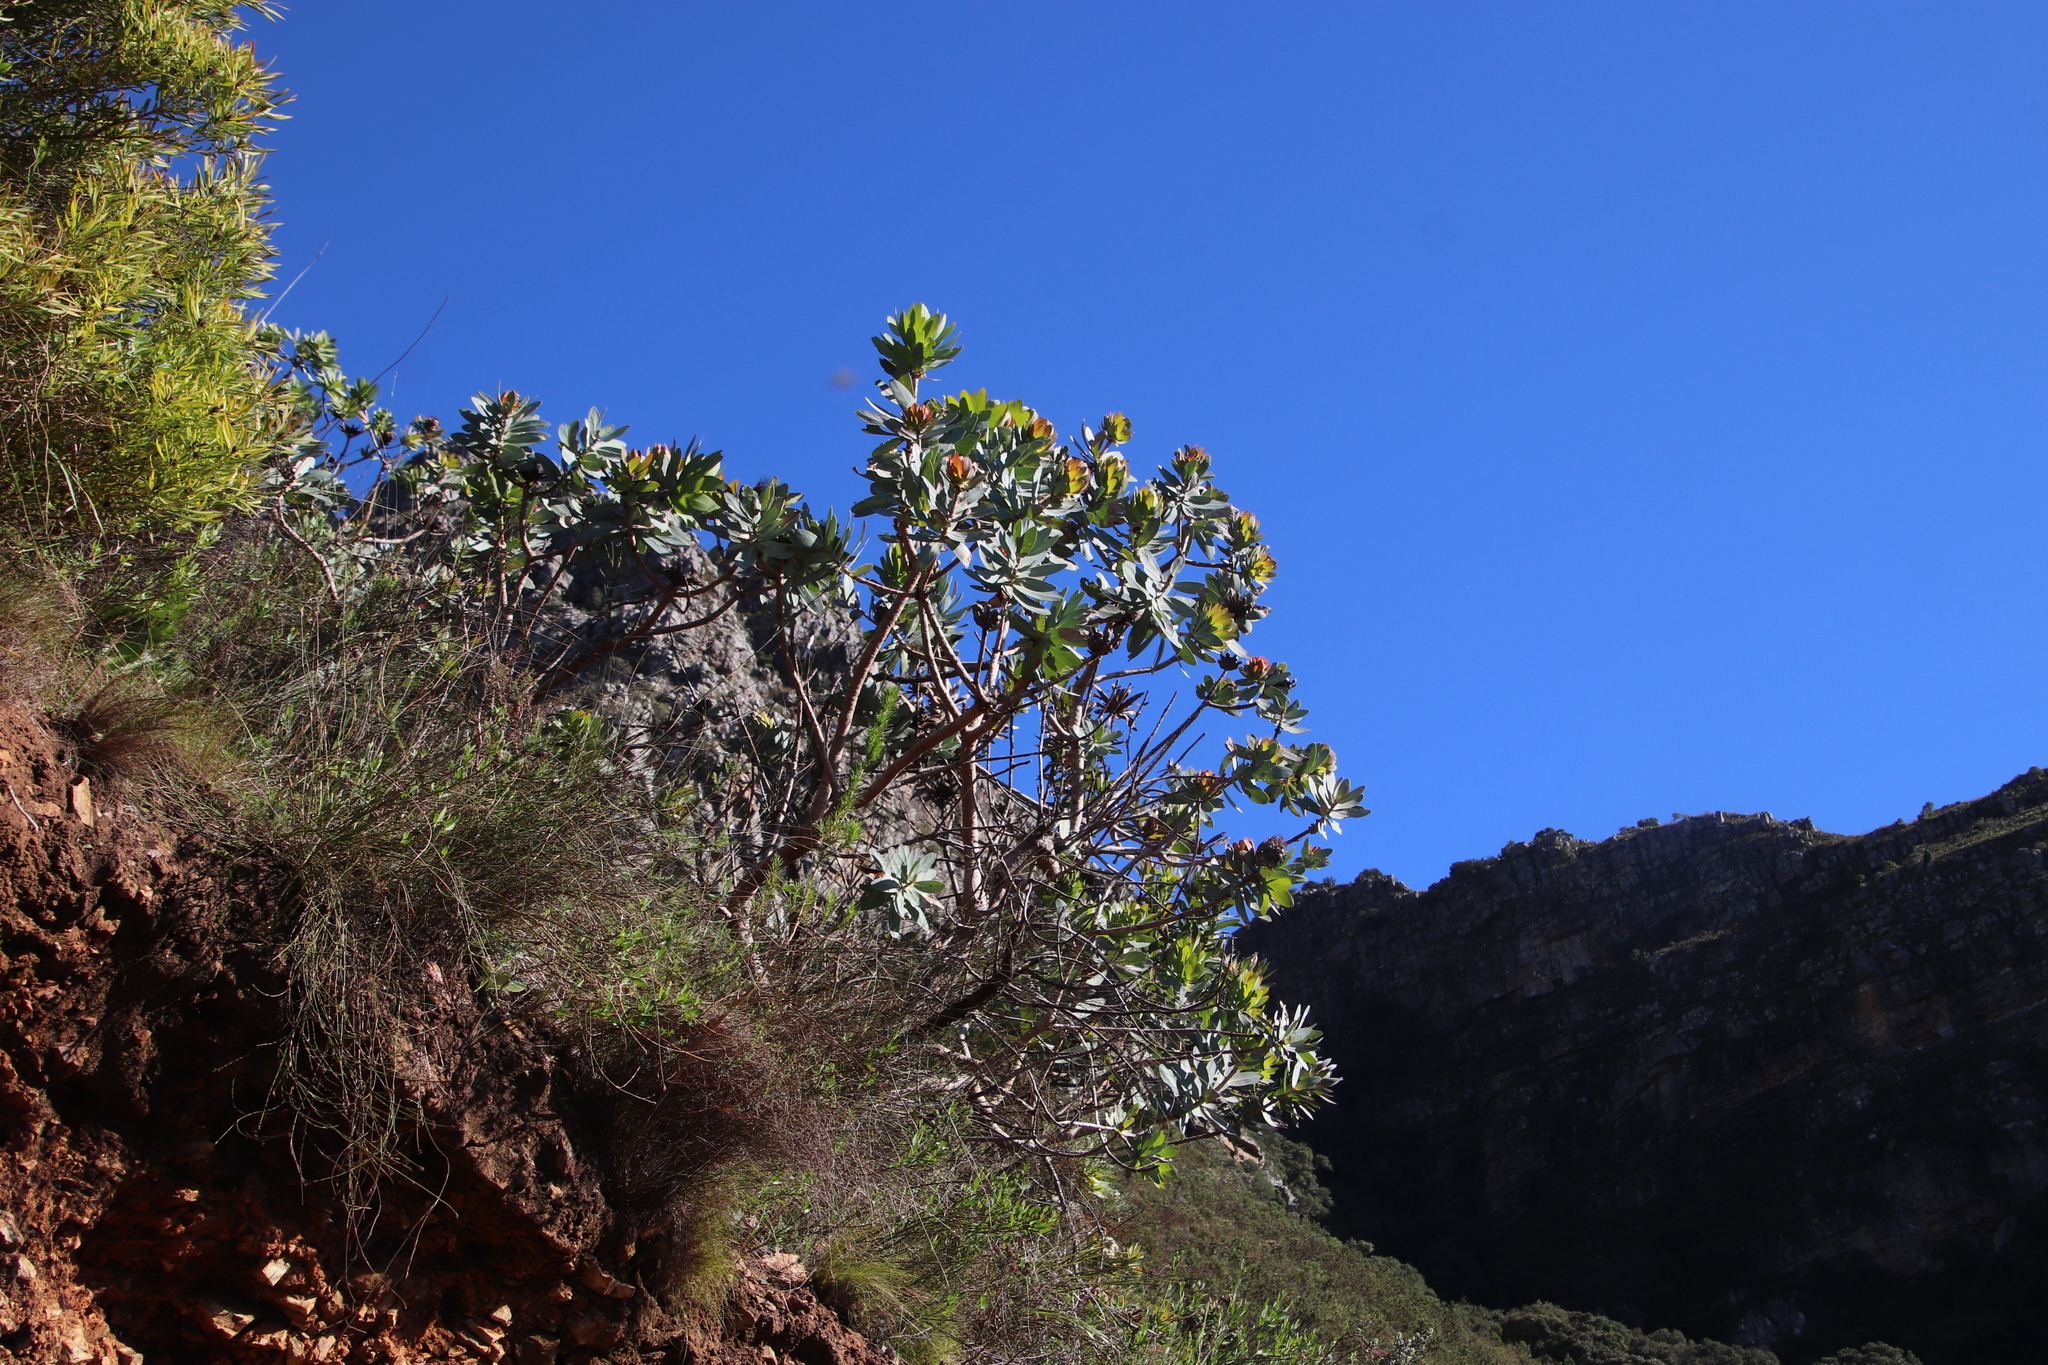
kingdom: Plantae
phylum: Tracheophyta
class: Magnoliopsida
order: Proteales
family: Proteaceae
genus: Protea
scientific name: Protea nitida
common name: Tree protea
